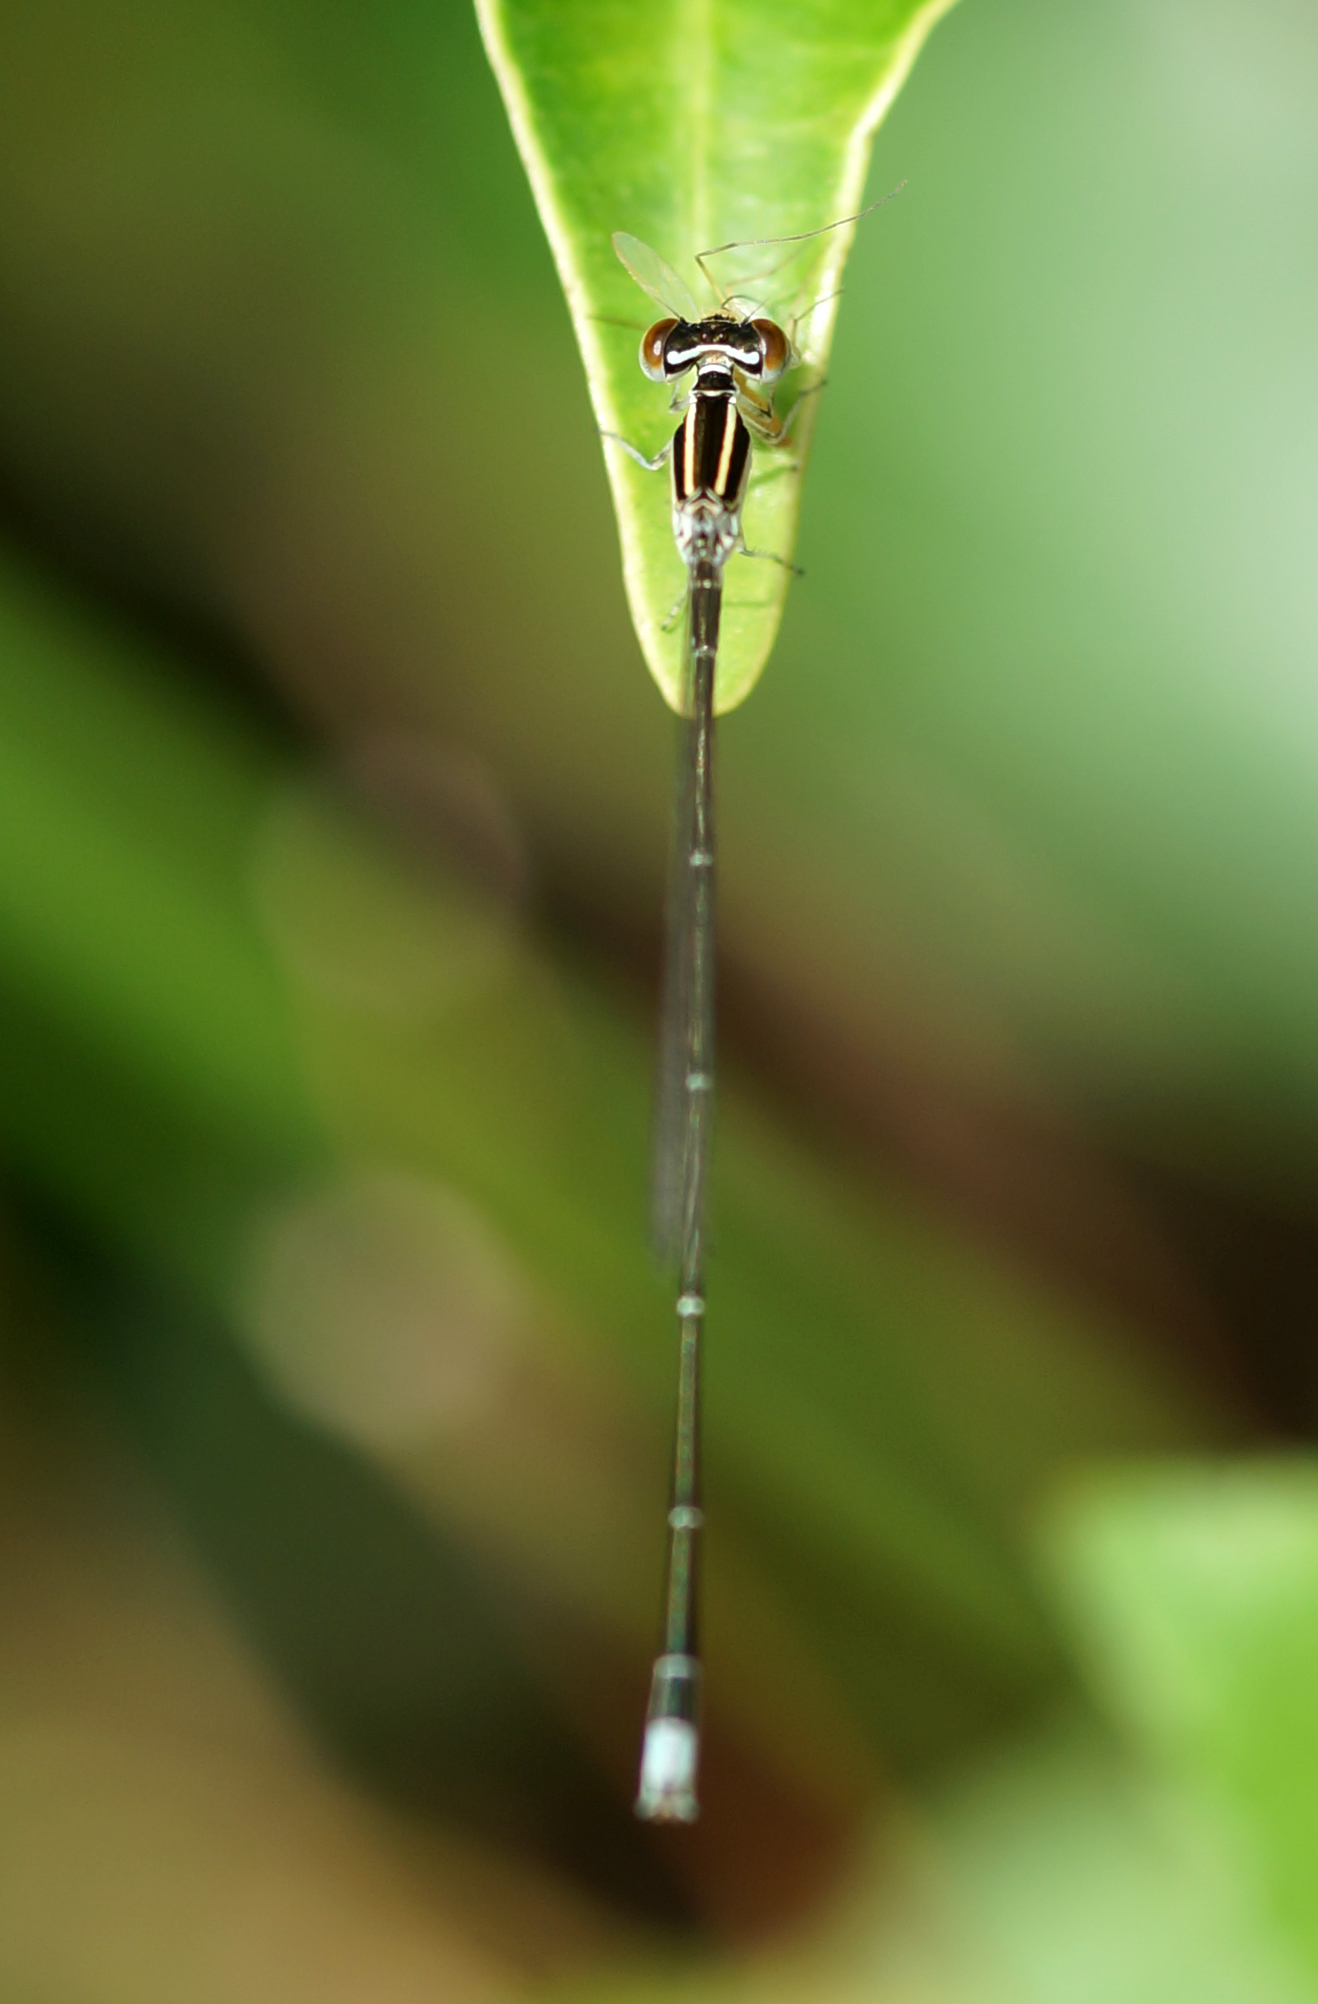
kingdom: Animalia
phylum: Arthropoda
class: Insecta
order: Odonata
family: Coenagrionidae
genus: Aciagrion
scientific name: Aciagrion borneense
